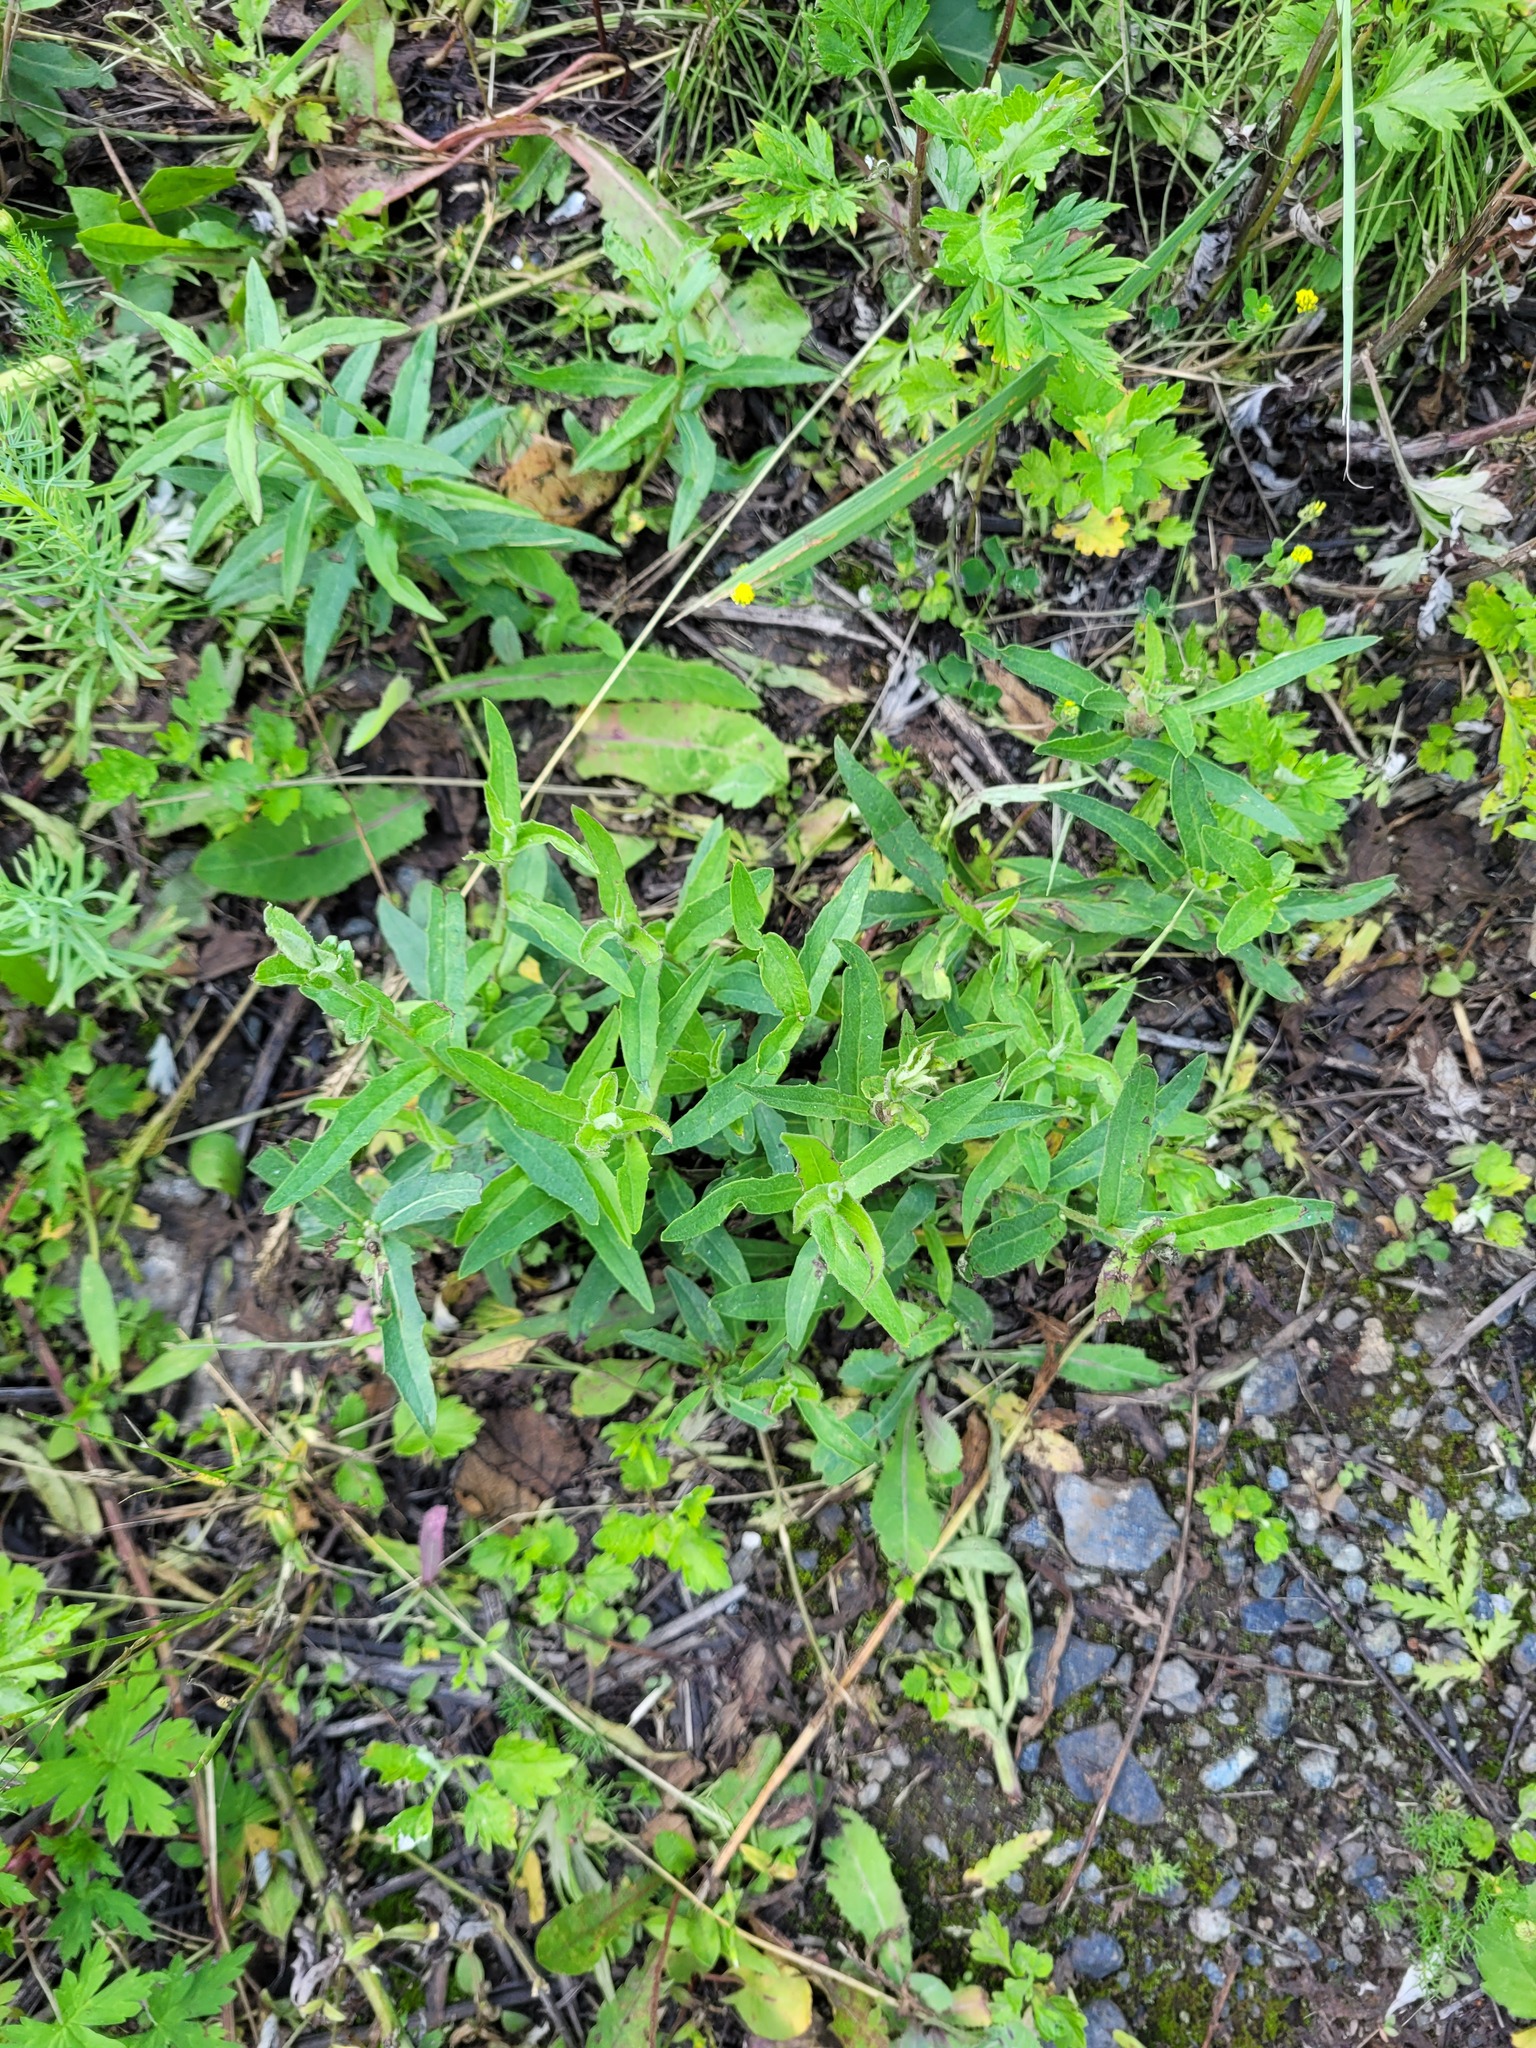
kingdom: Plantae
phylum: Tracheophyta
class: Magnoliopsida
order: Asterales
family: Asteraceae
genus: Hieracium
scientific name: Hieracium umbellatum
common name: Northern hawkweed
